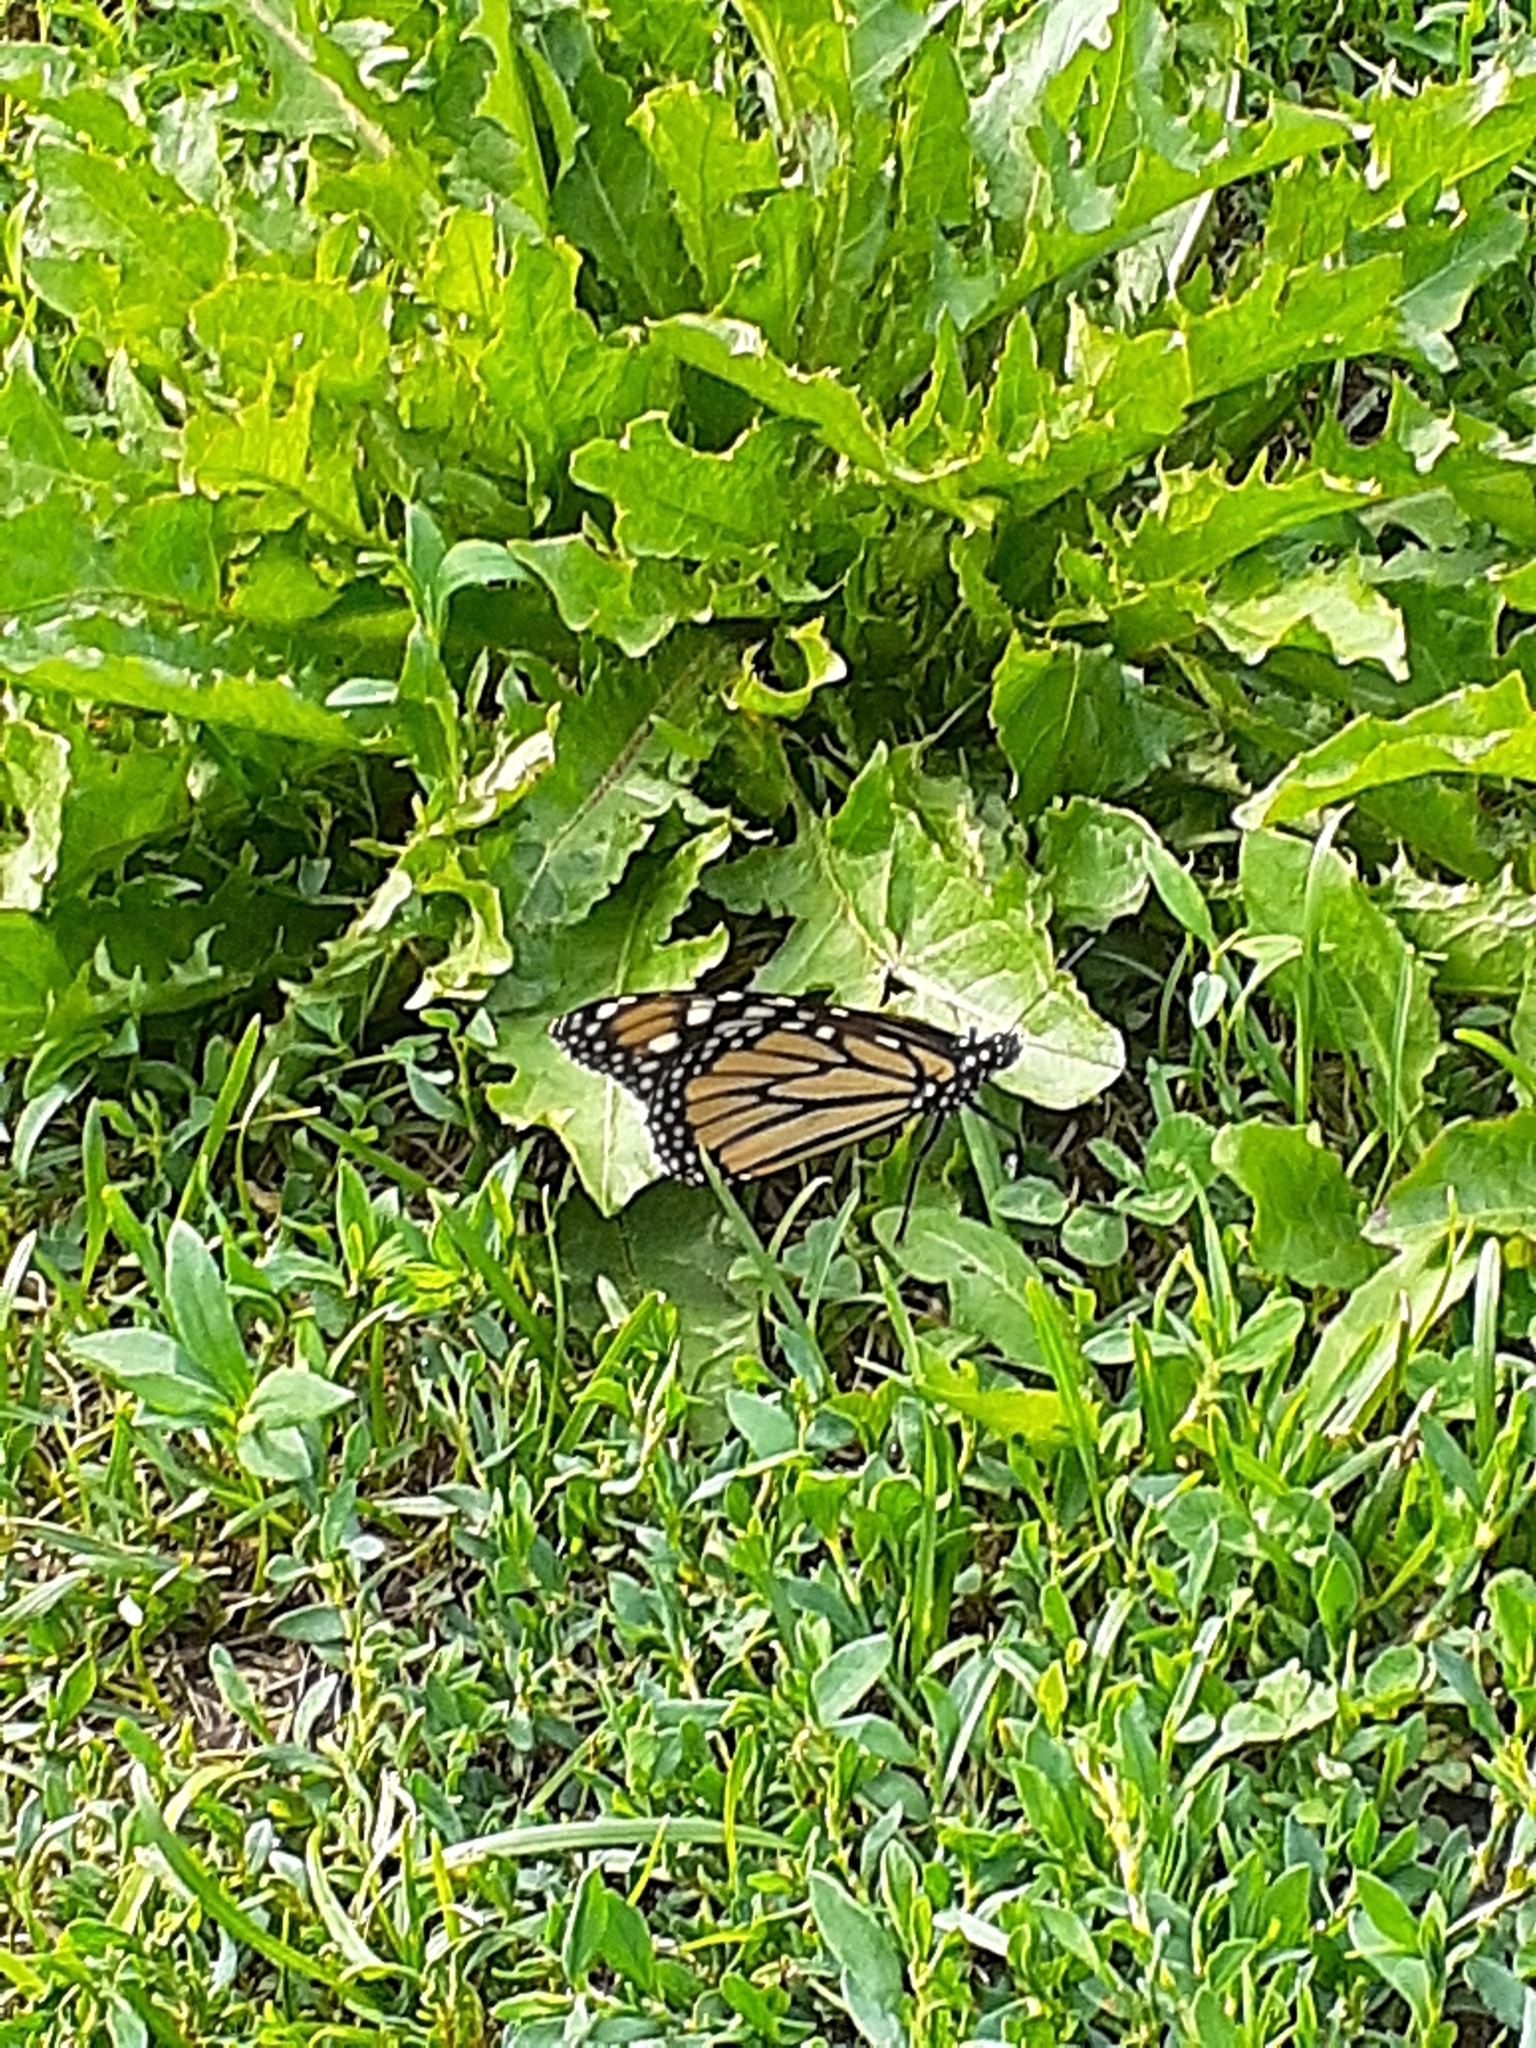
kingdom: Animalia
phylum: Arthropoda
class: Insecta
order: Lepidoptera
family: Nymphalidae
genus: Danaus
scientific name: Danaus plexippus
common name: Monarch
